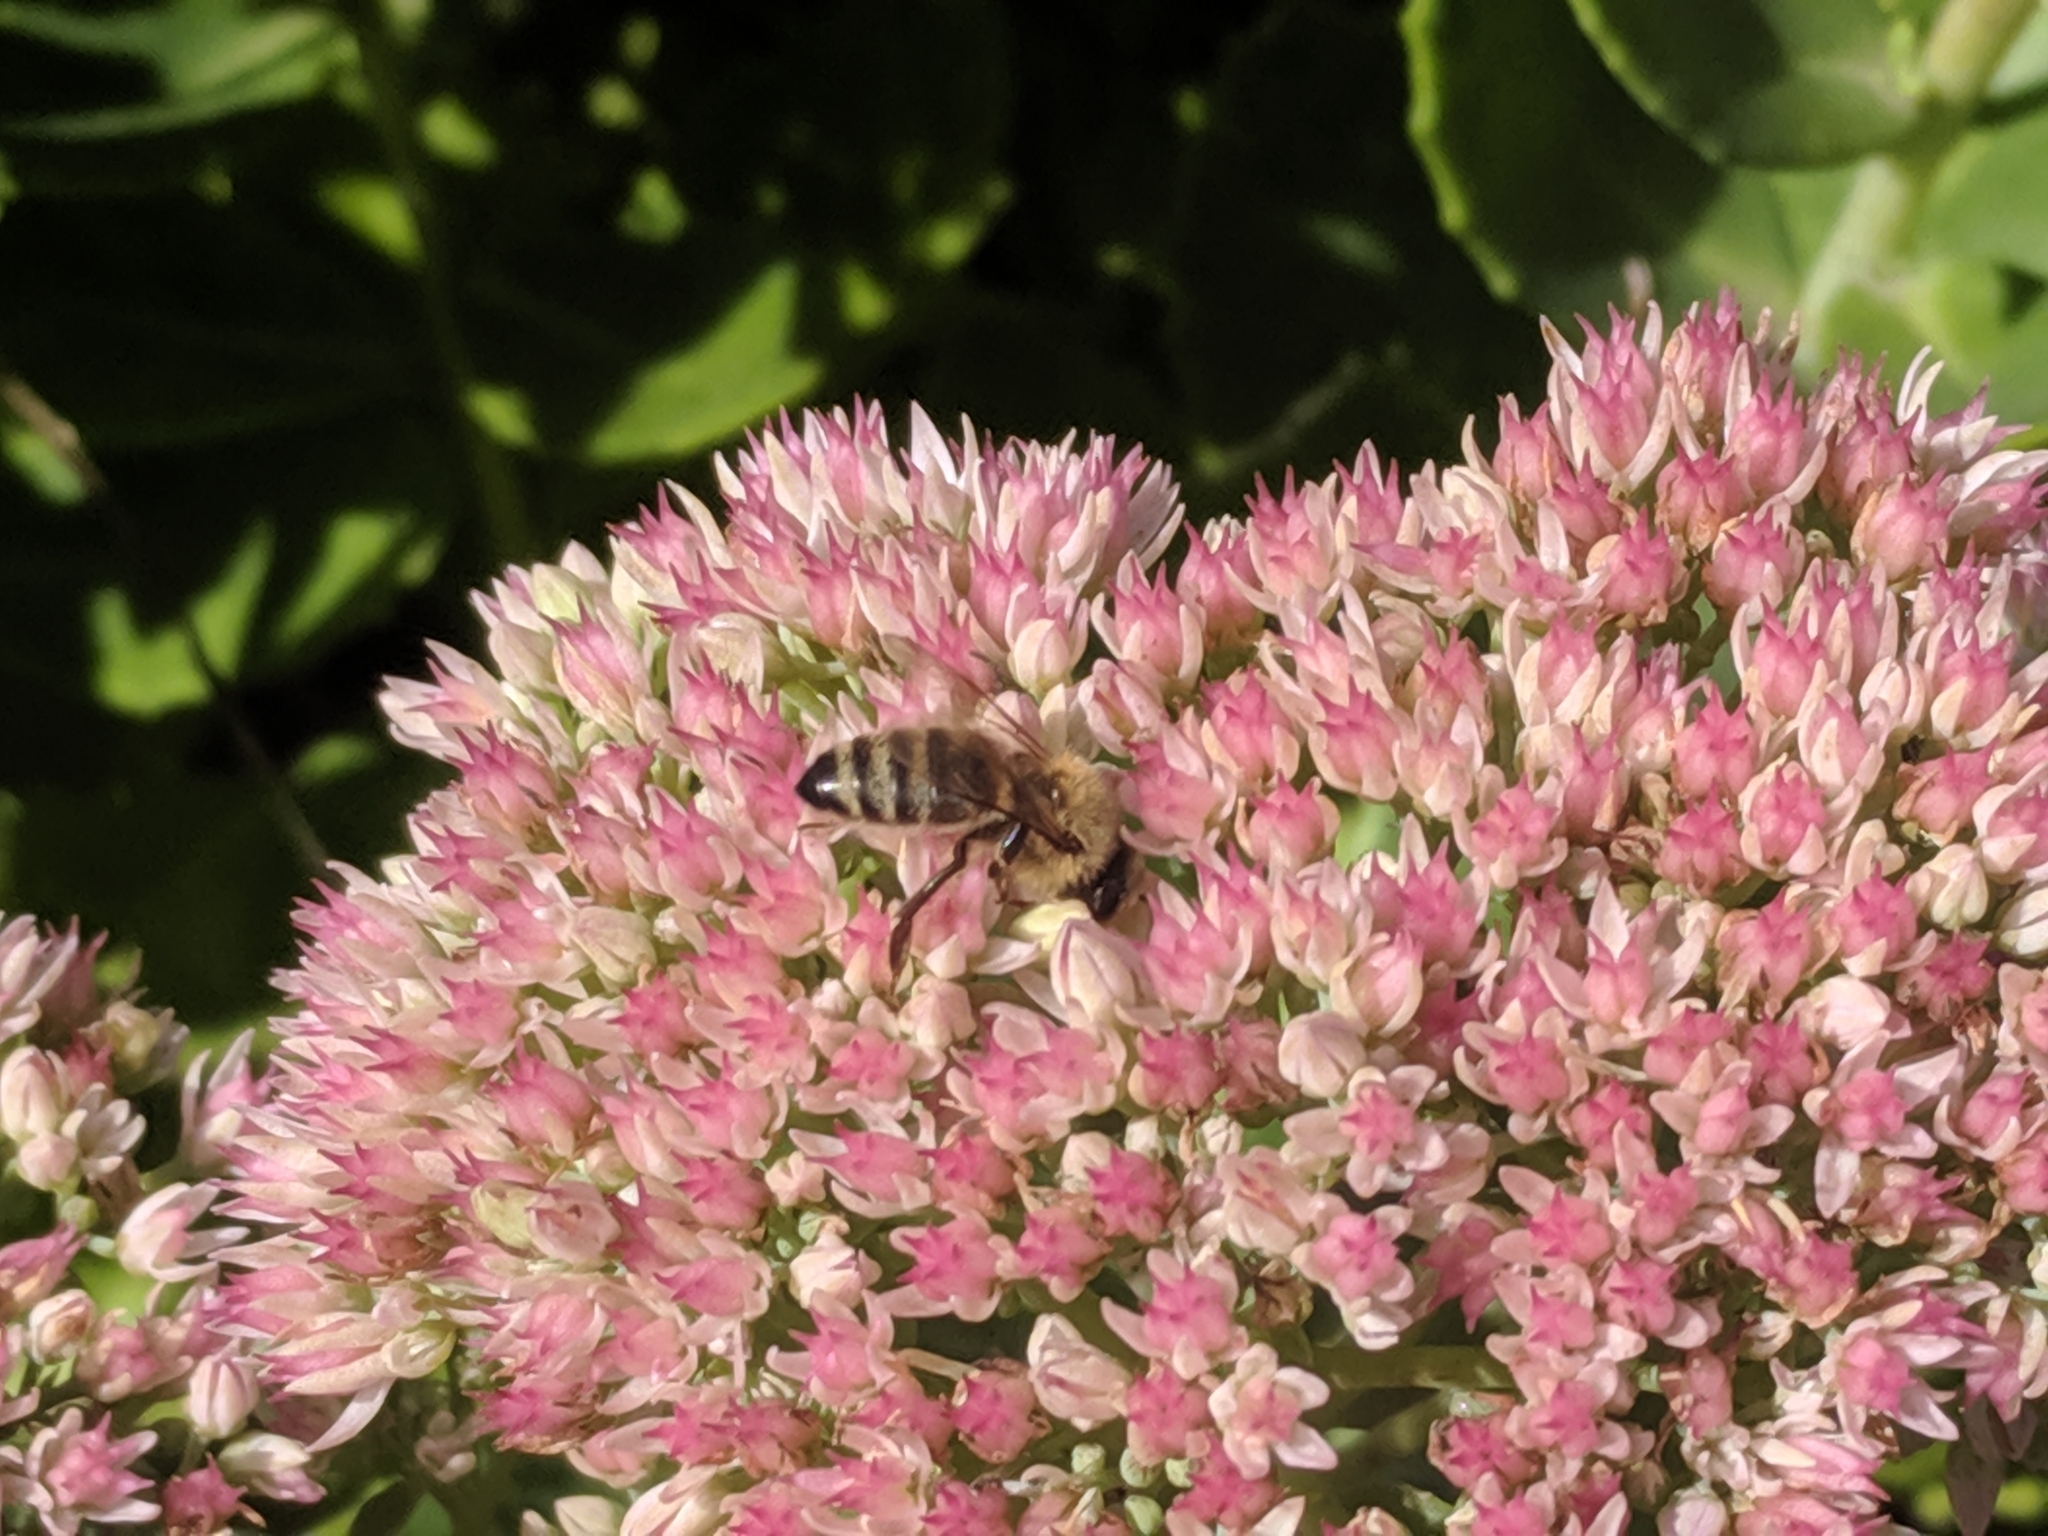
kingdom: Animalia
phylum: Arthropoda
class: Insecta
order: Hymenoptera
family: Apidae
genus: Apis
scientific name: Apis mellifera
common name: Honey bee
